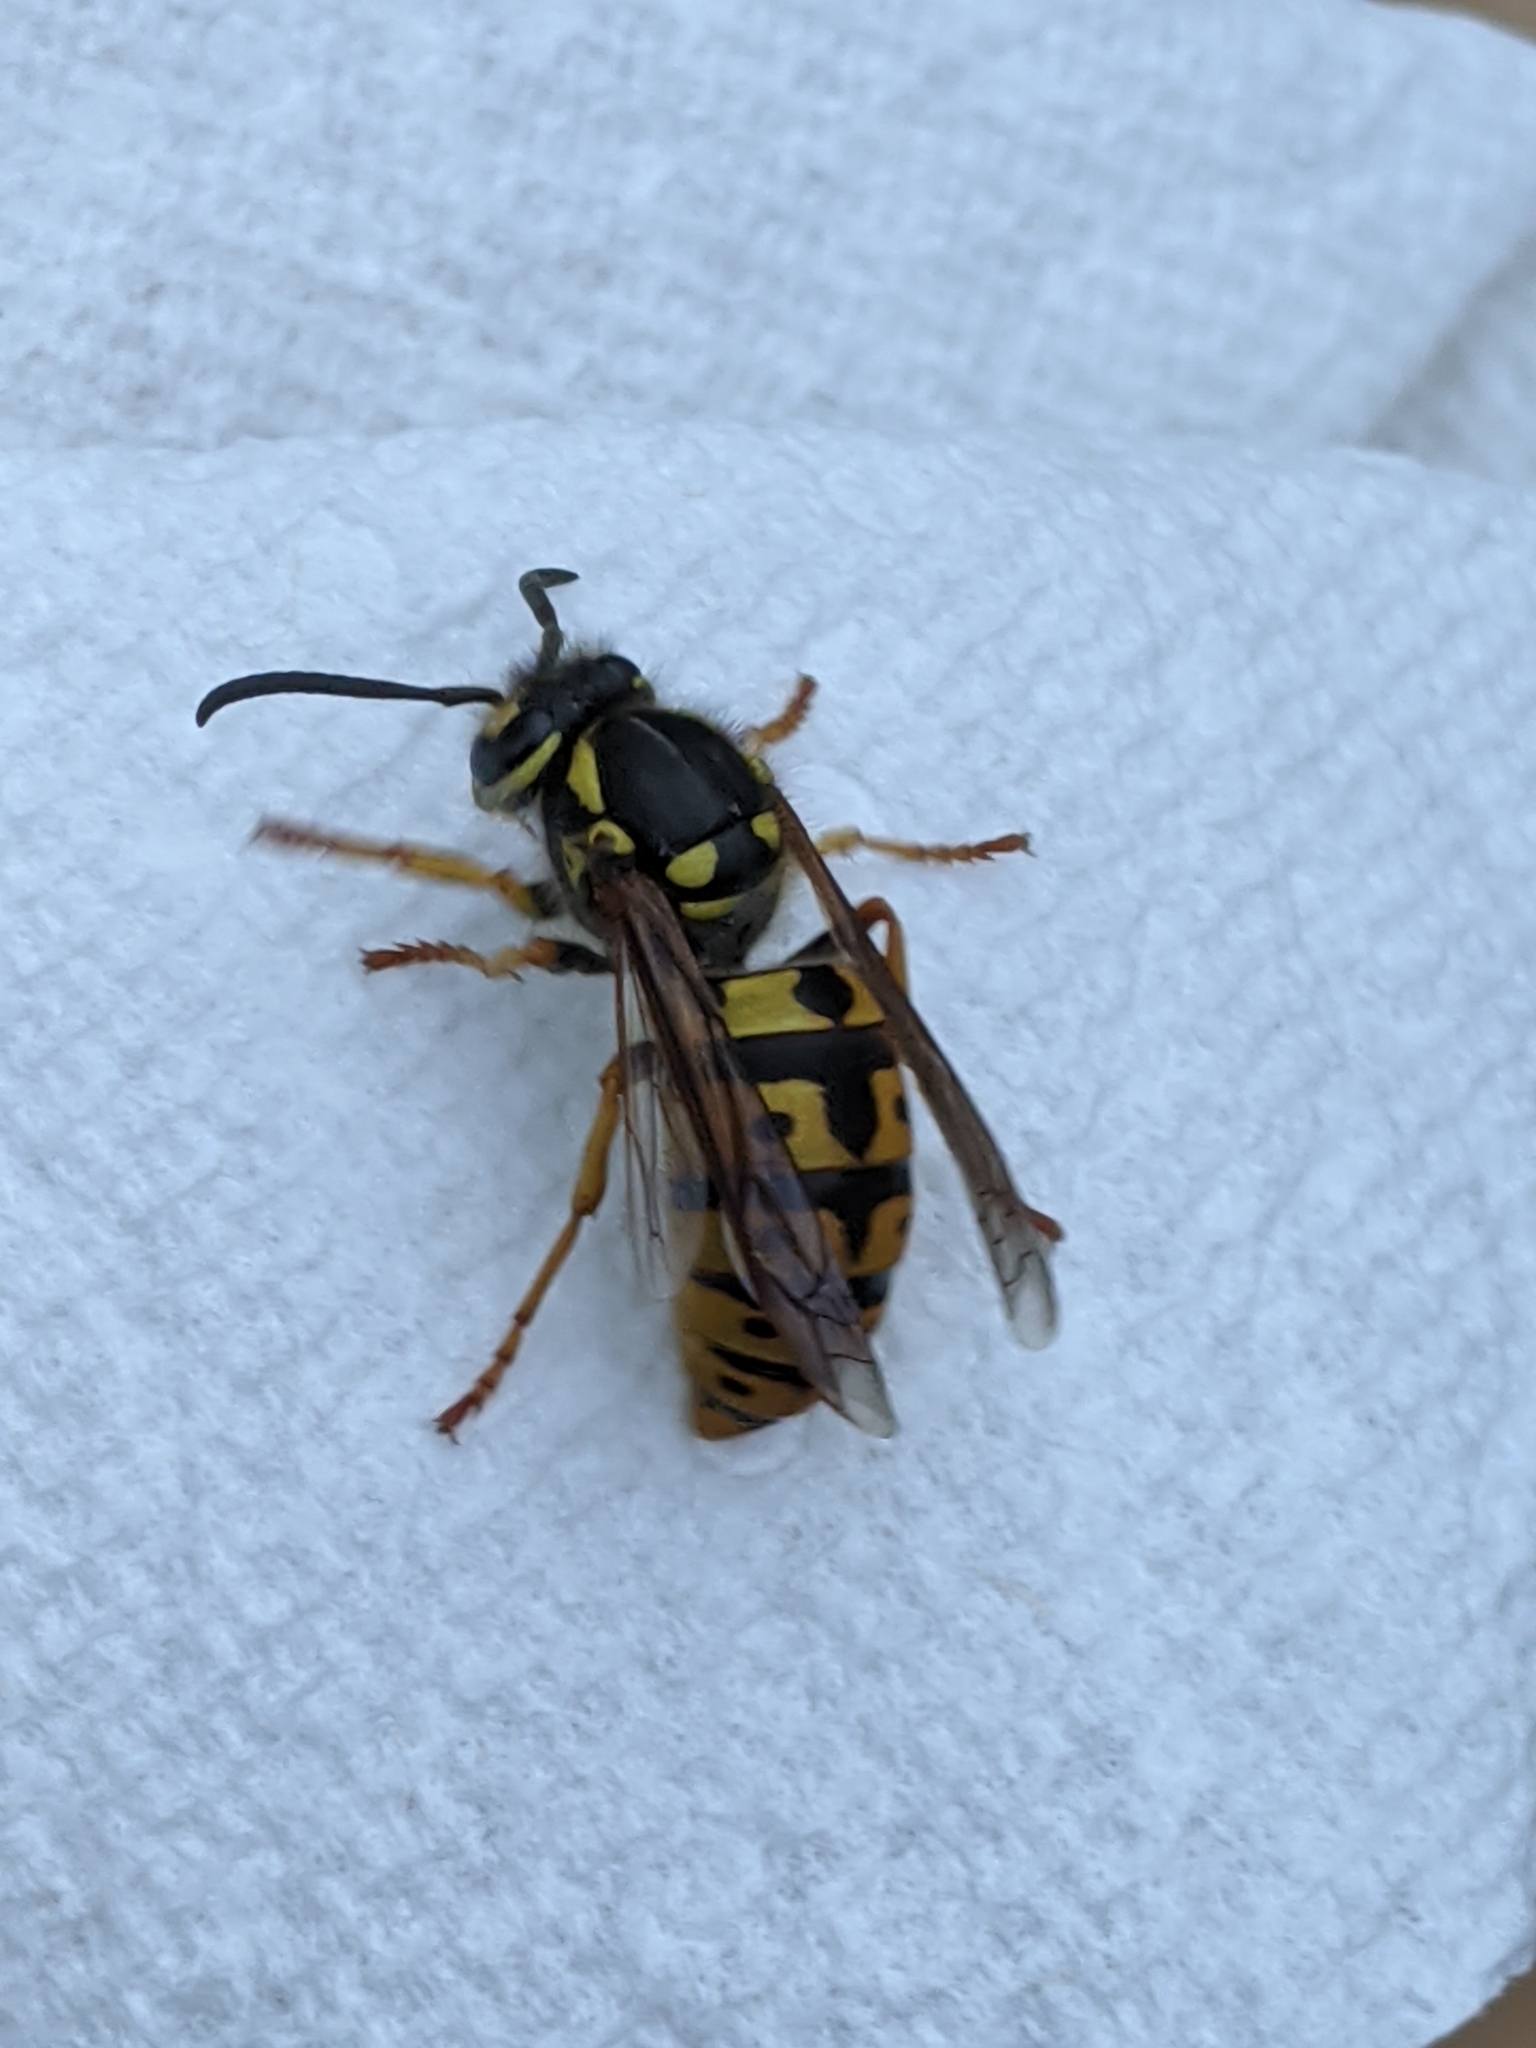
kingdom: Animalia
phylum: Arthropoda
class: Insecta
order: Hymenoptera
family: Vespidae
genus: Vespula
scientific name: Vespula germanica
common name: German wasp
